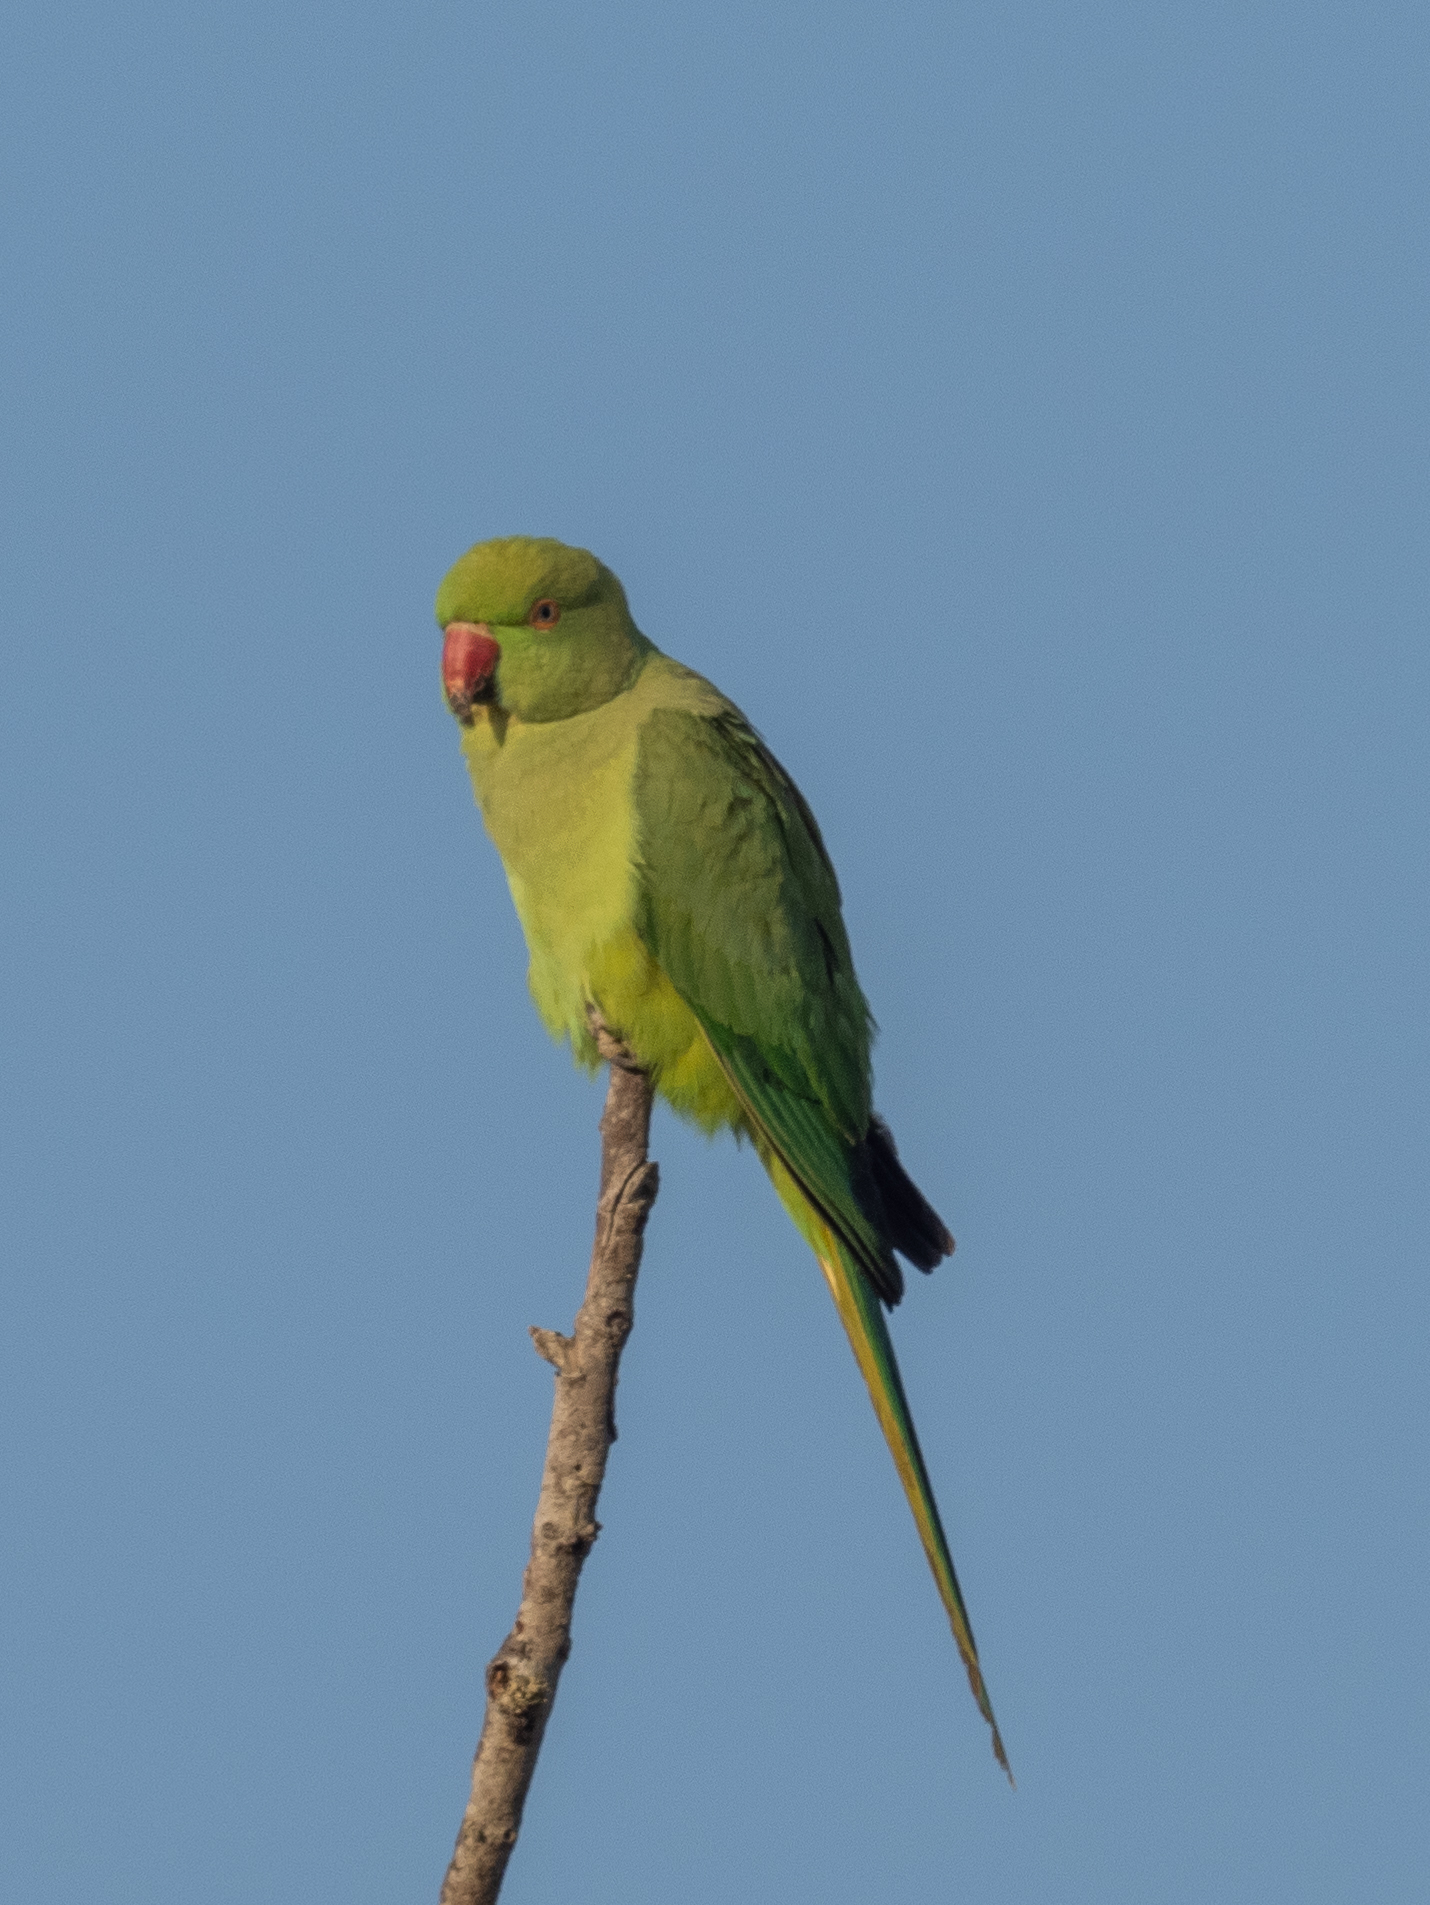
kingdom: Animalia
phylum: Chordata
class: Aves
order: Psittaciformes
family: Psittacidae
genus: Psittacula
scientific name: Psittacula krameri
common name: Rose-ringed parakeet
